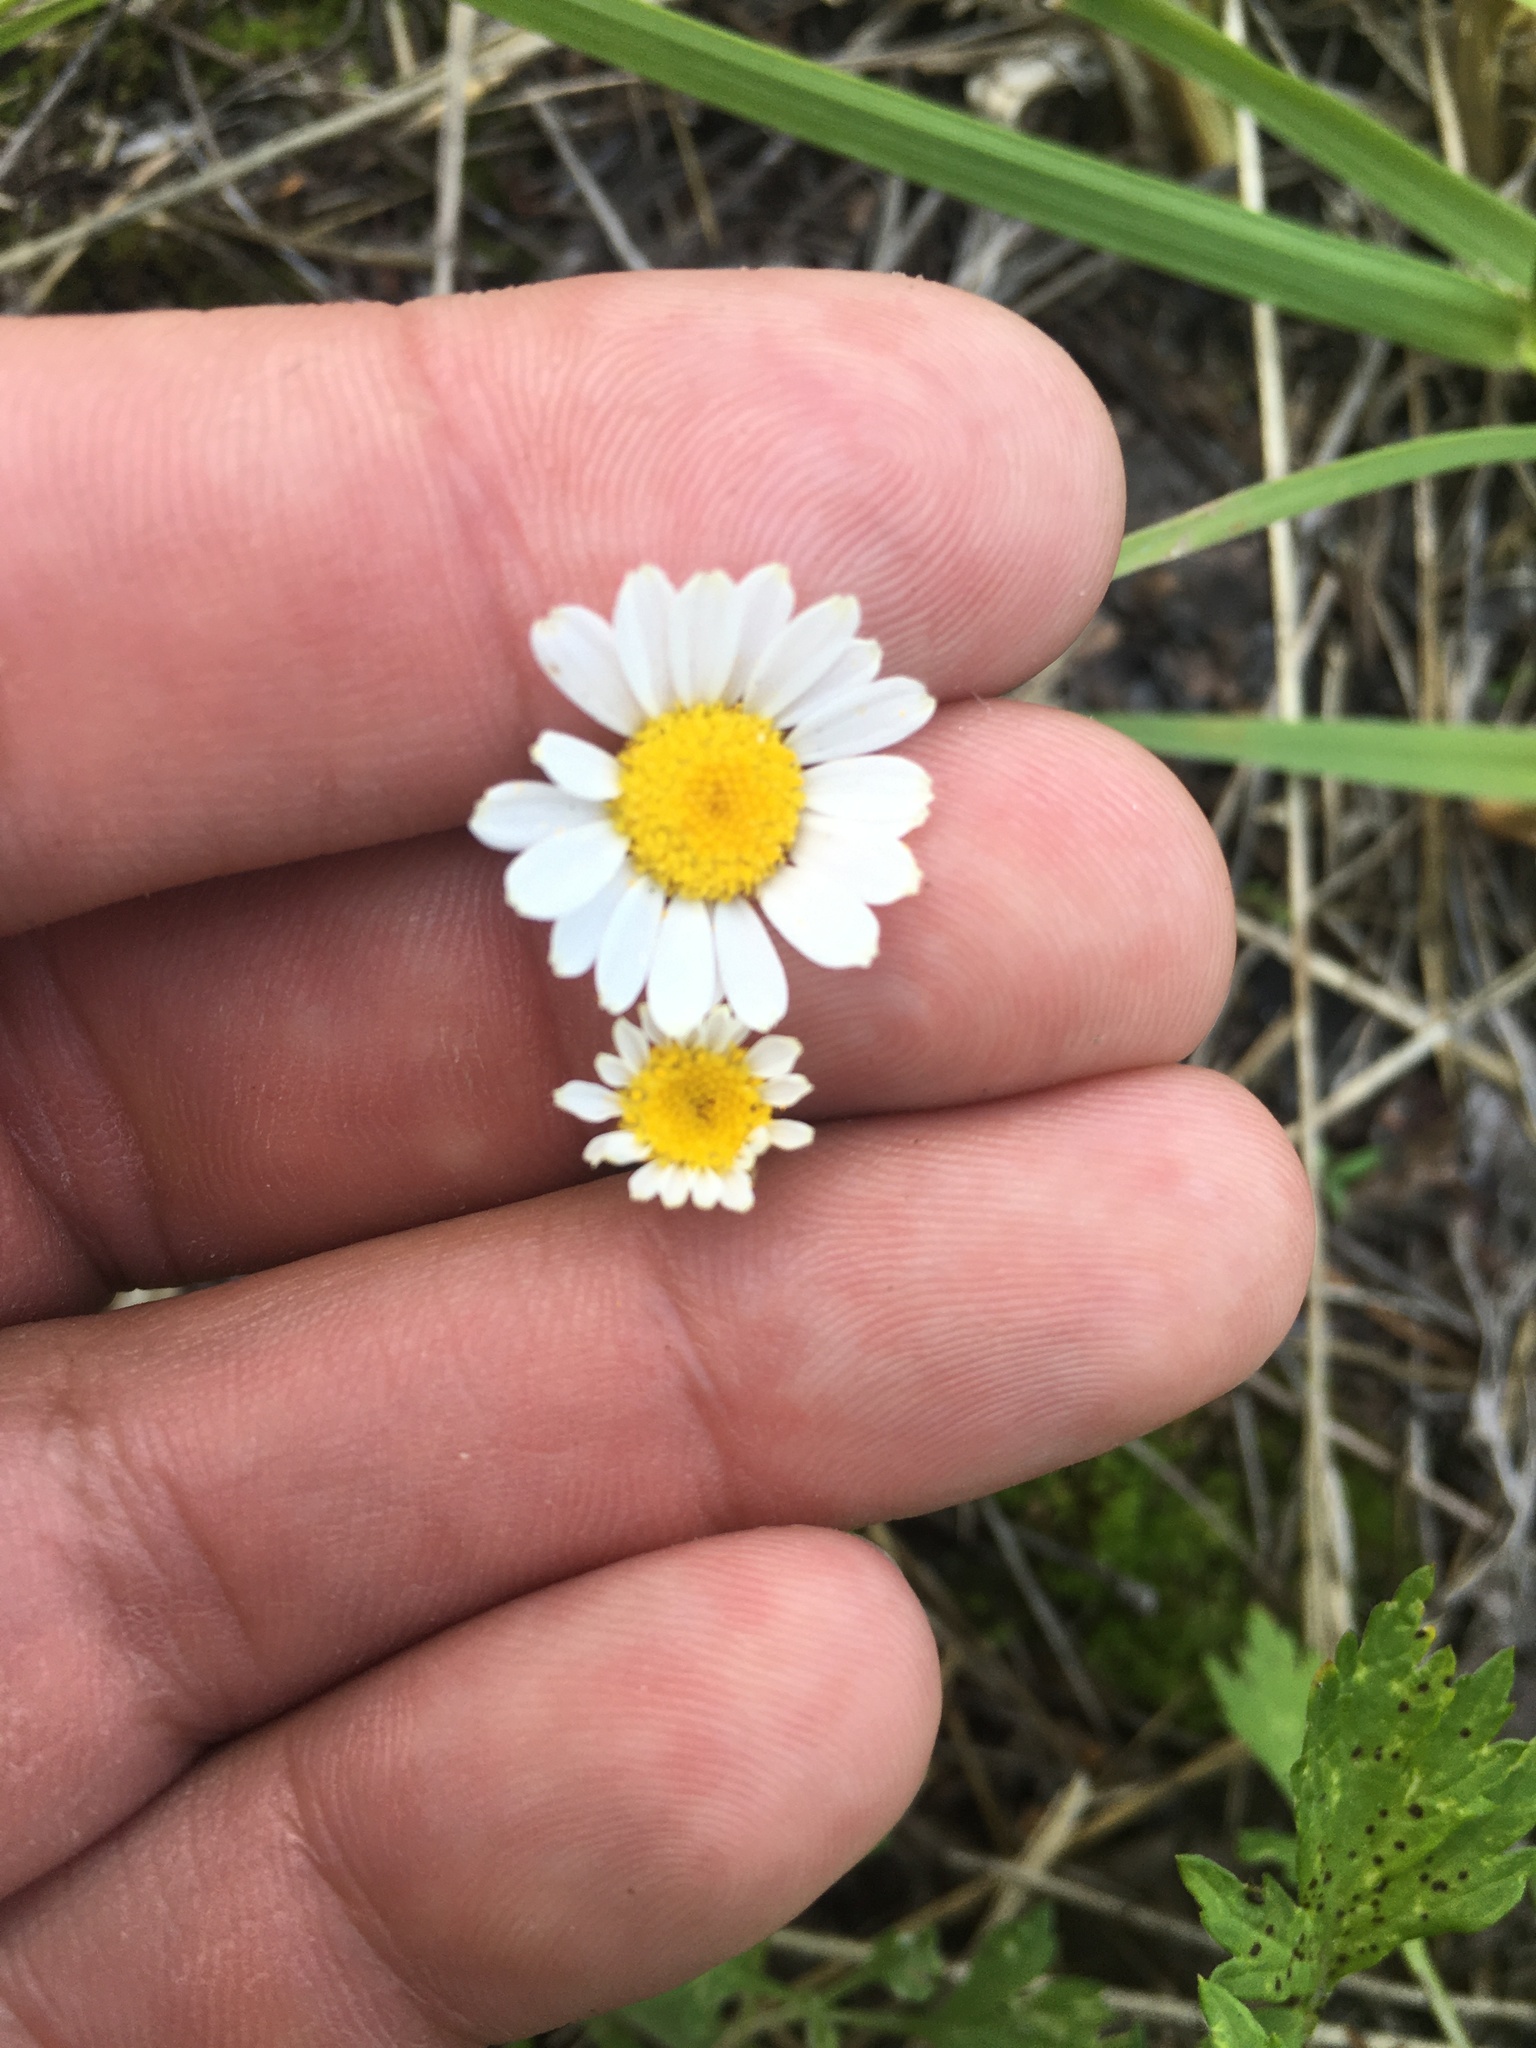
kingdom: Plantae
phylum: Tracheophyta
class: Magnoliopsida
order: Asterales
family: Asteraceae
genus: Tripleurospermum
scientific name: Tripleurospermum inodorum
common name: Scentless mayweed
